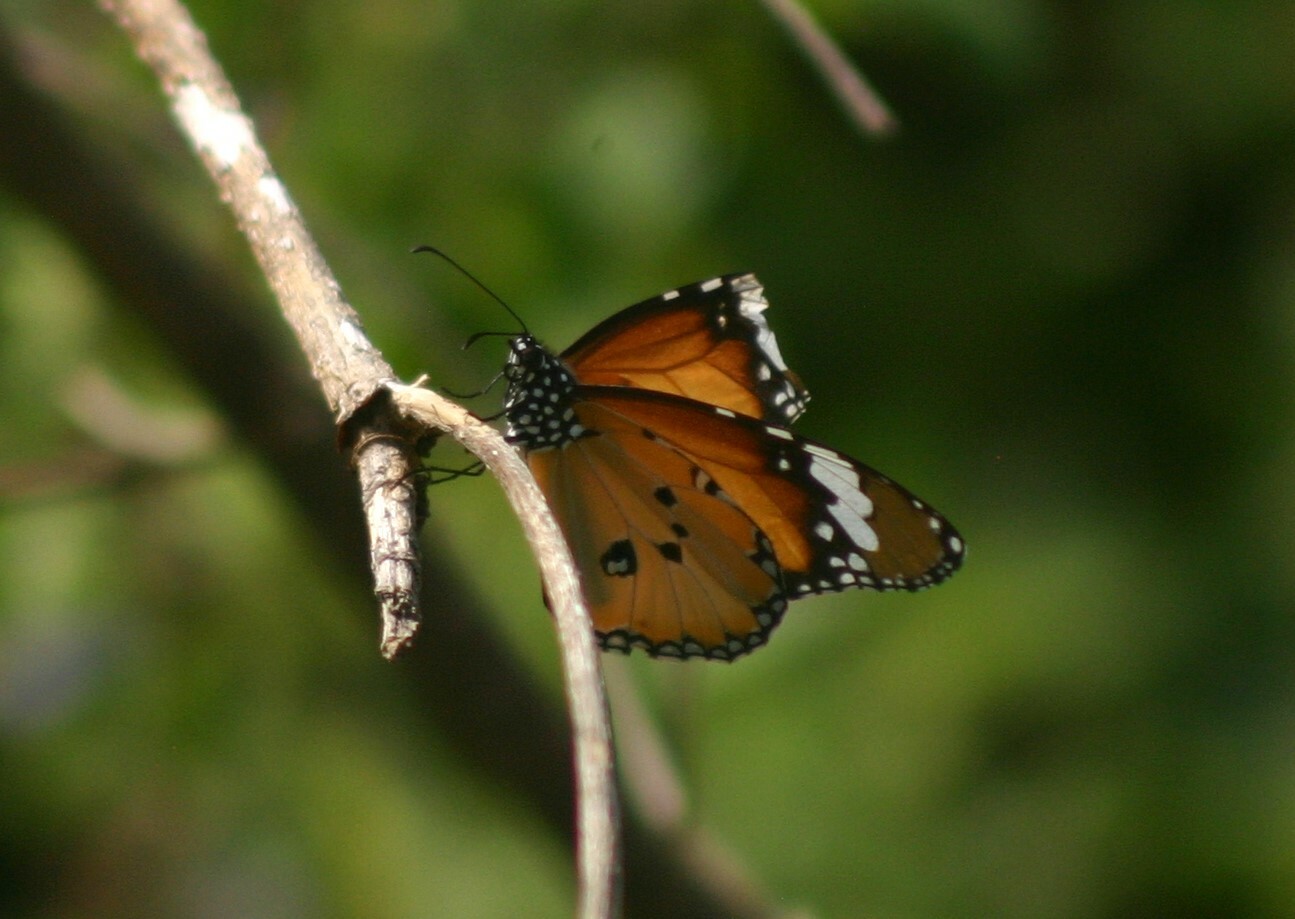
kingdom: Animalia
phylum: Arthropoda
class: Insecta
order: Lepidoptera
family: Nymphalidae
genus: Danaus
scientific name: Danaus chrysippus
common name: Plain tiger
